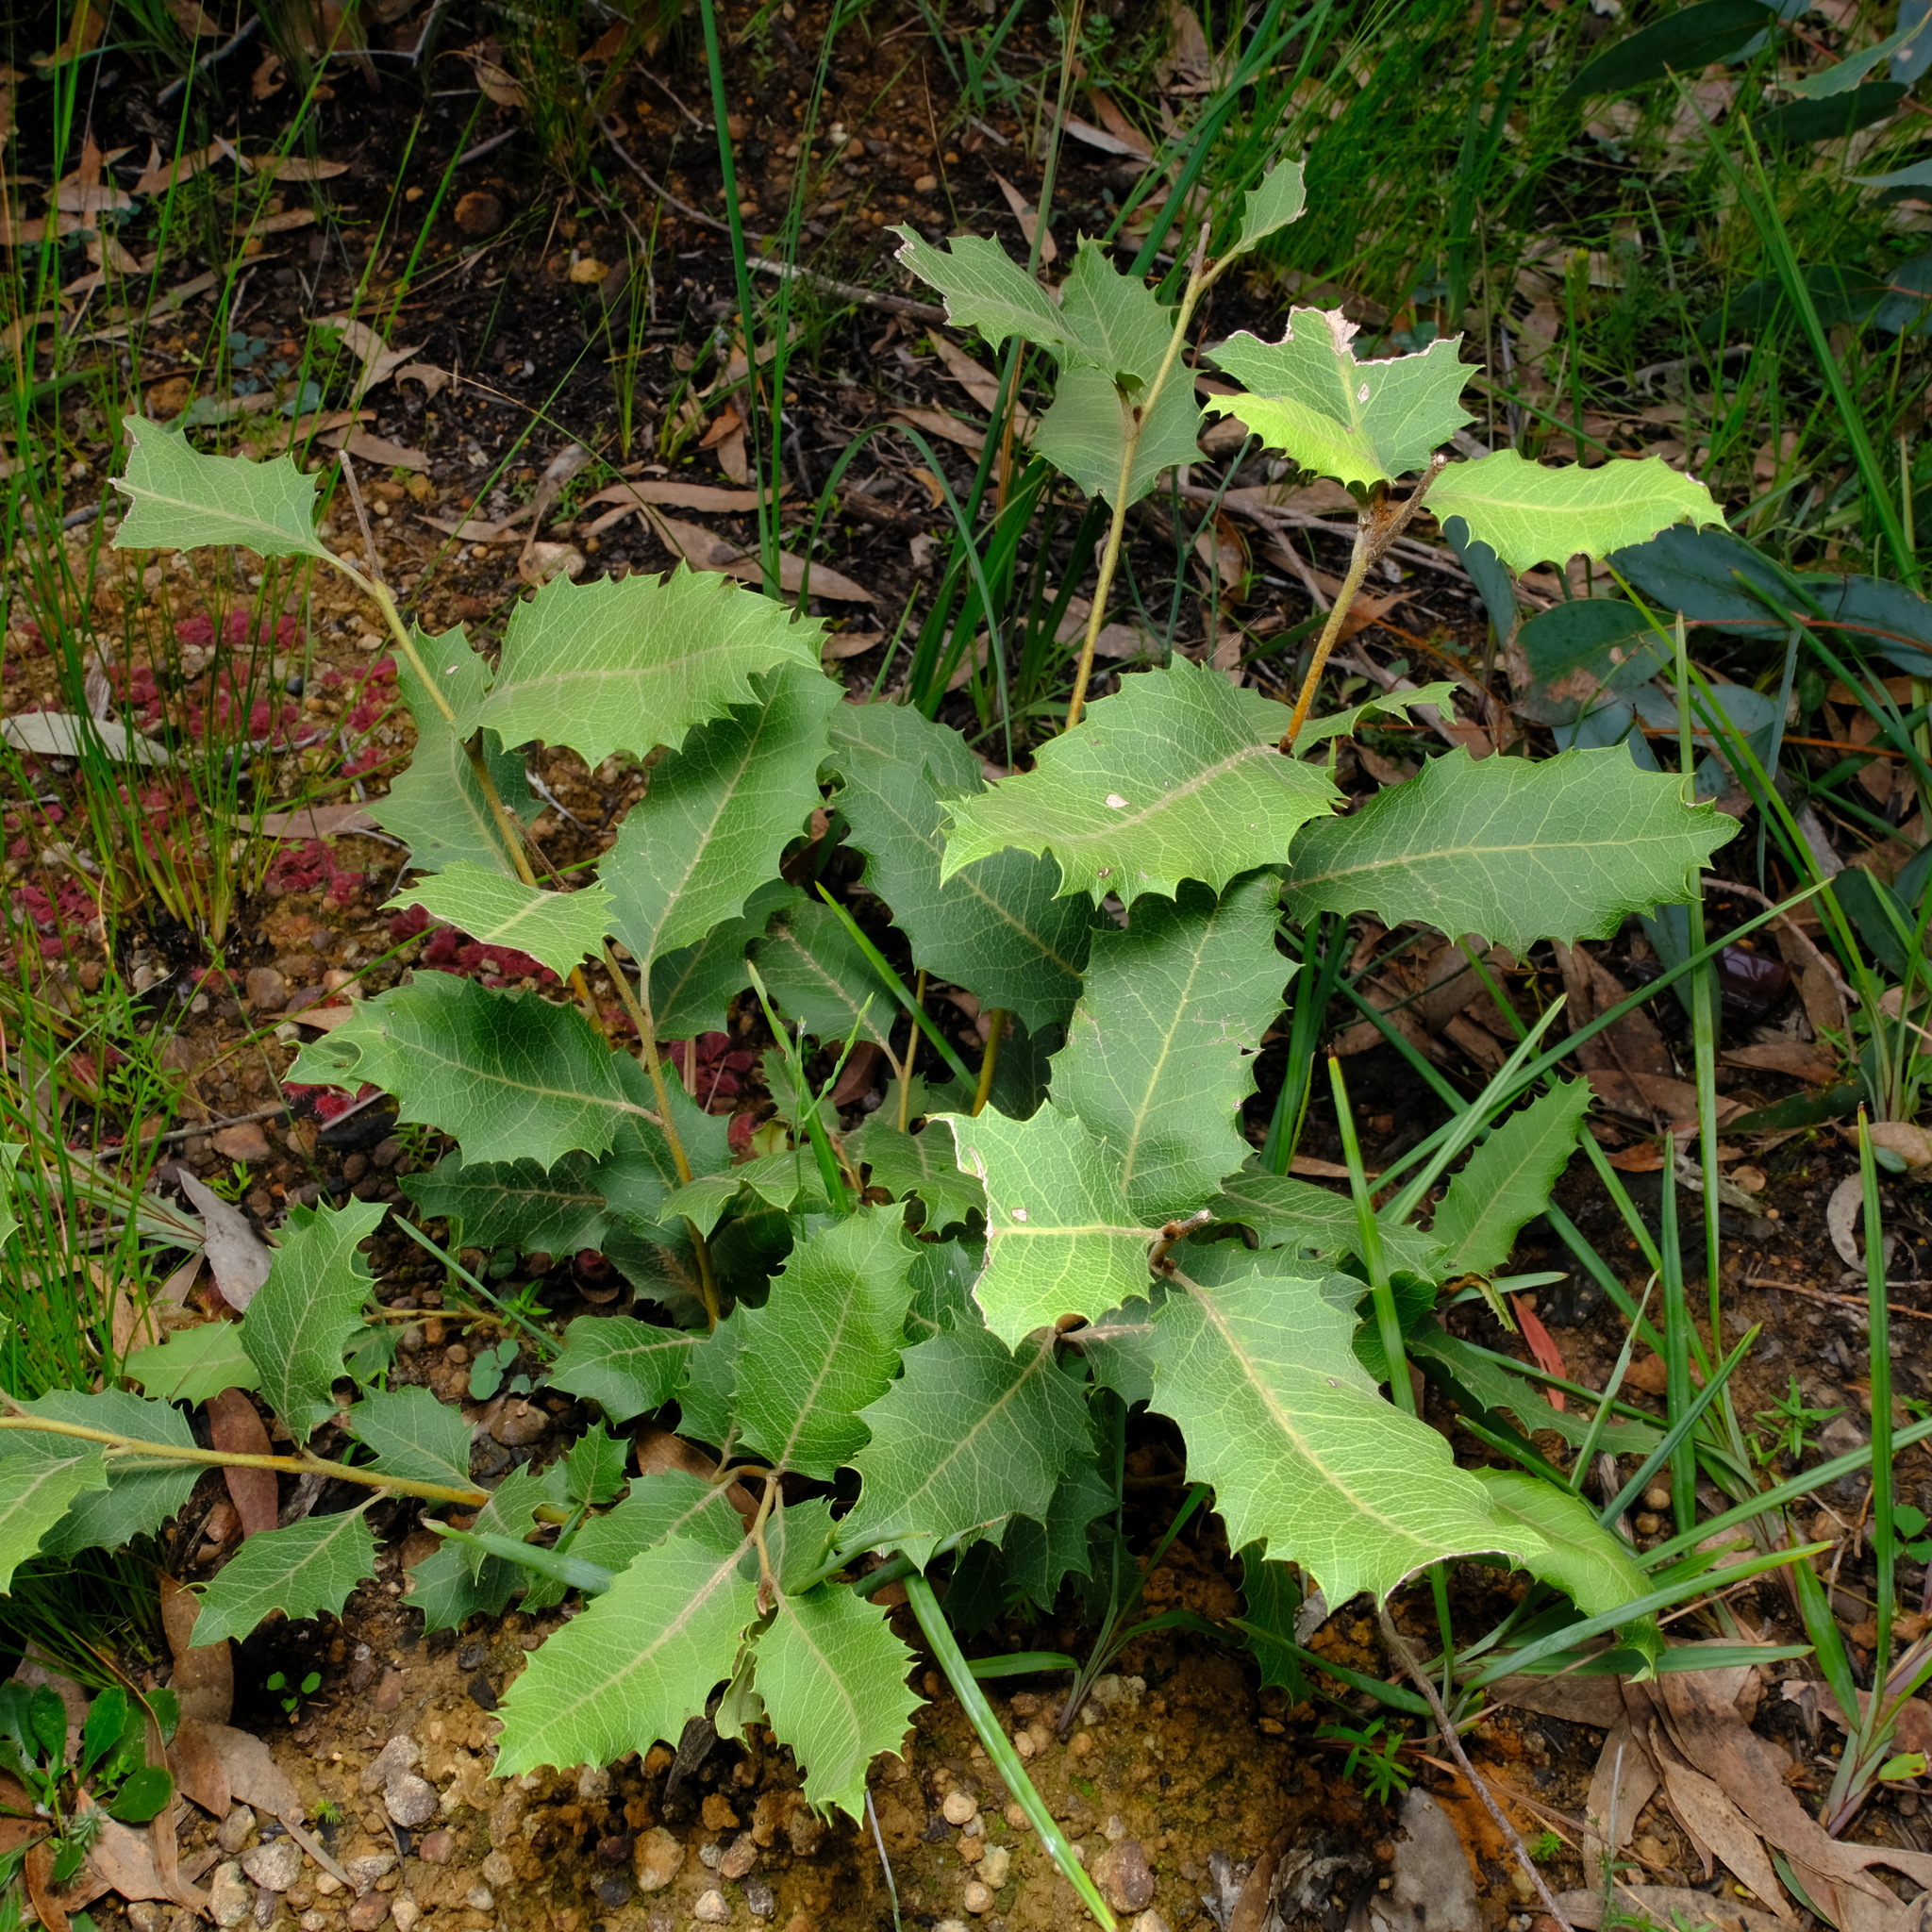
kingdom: Plantae
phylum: Tracheophyta
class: Magnoliopsida
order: Proteales
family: Proteaceae
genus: Lomatia
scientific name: Lomatia ilicifolia
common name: Native-holly
